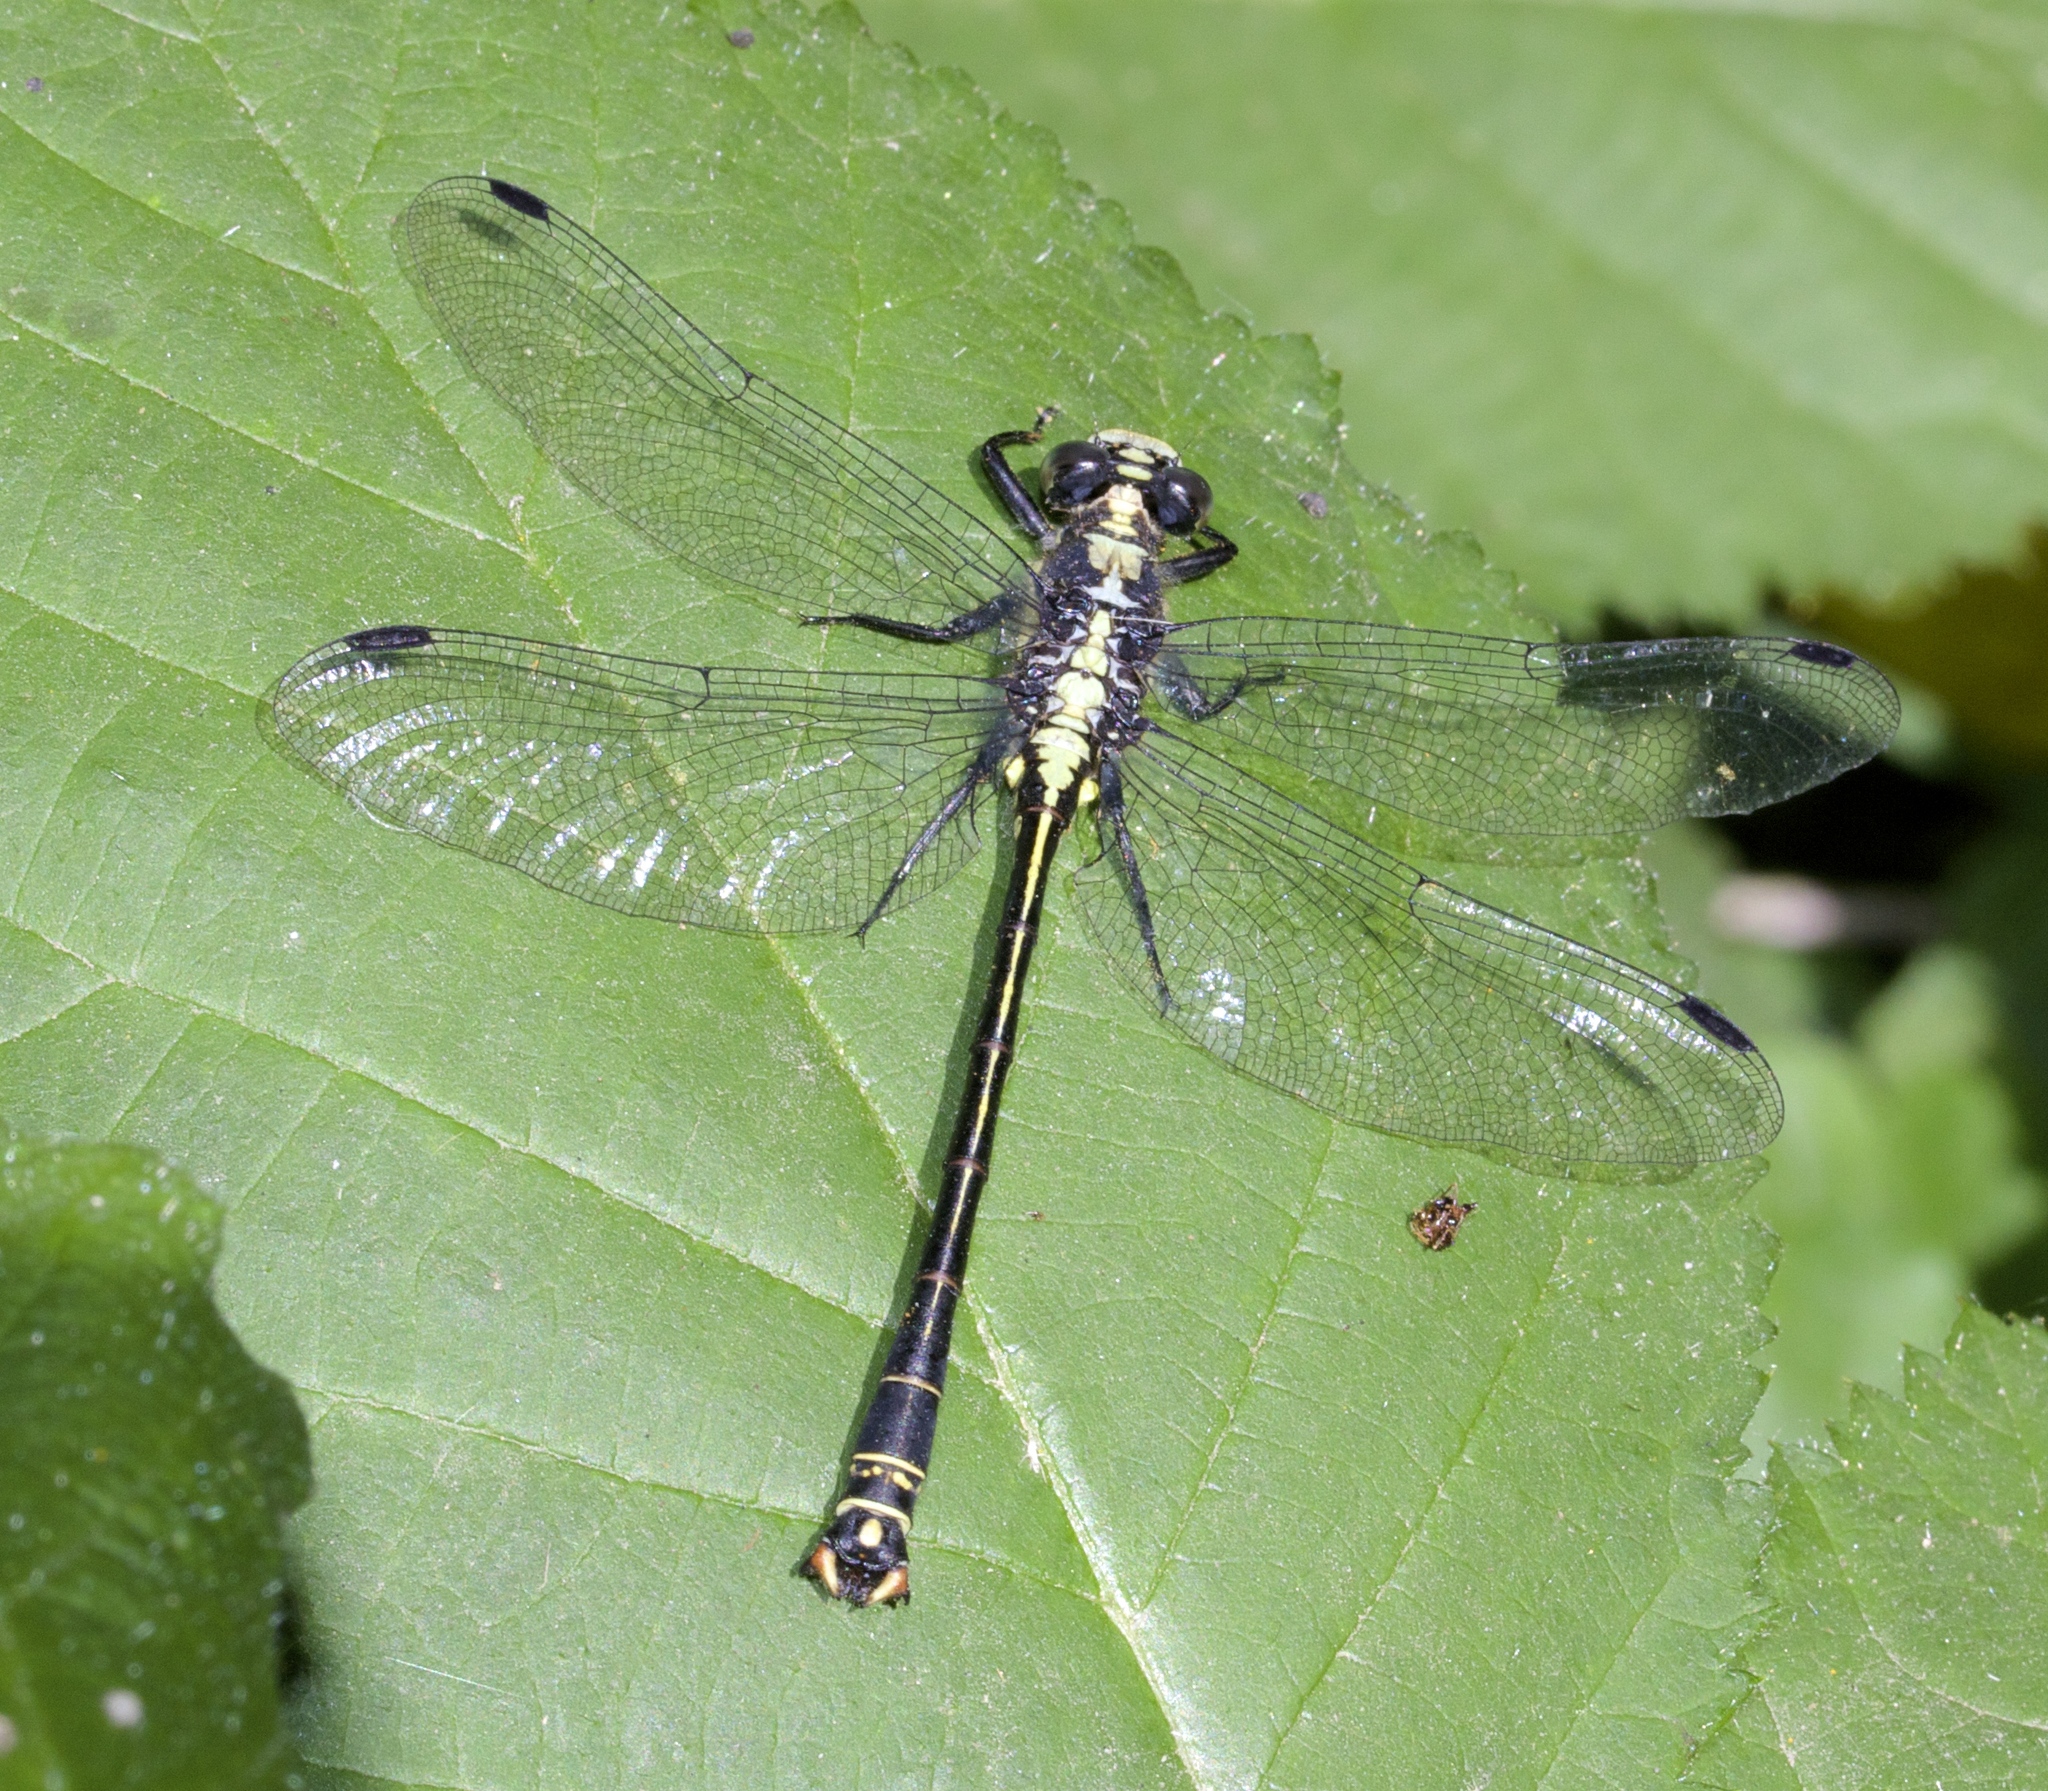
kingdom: Animalia
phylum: Arthropoda
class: Insecta
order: Odonata
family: Gomphidae
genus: Octogomphus
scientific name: Octogomphus specularis
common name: Grappletail
